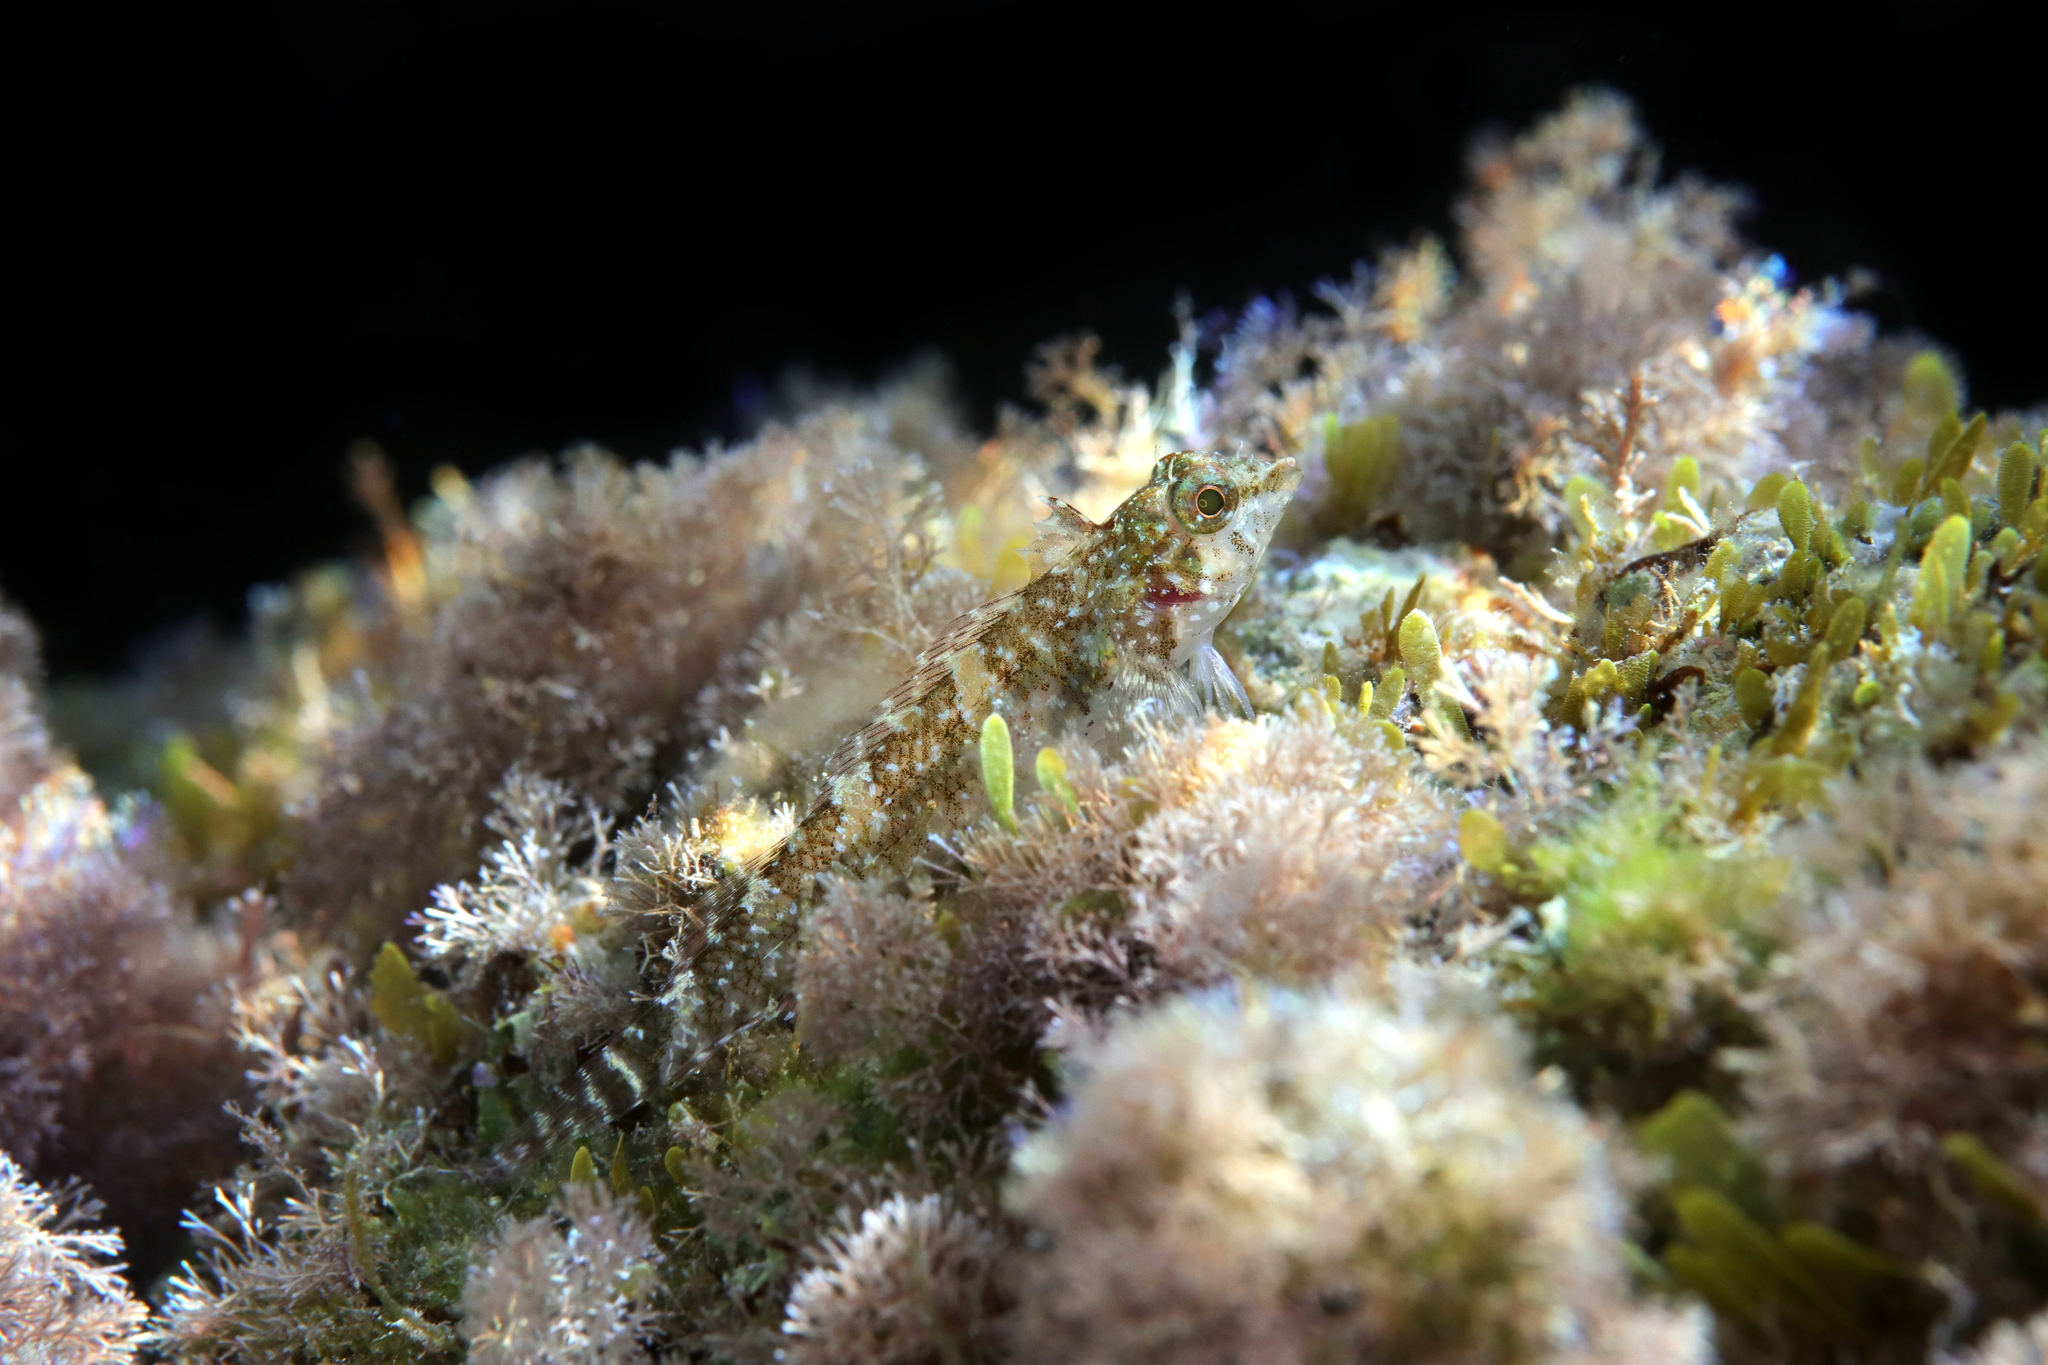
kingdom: Animalia
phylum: Chordata
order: Perciformes
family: Tripterygiidae
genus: Tripterygion
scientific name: Tripterygion tripteronotum
